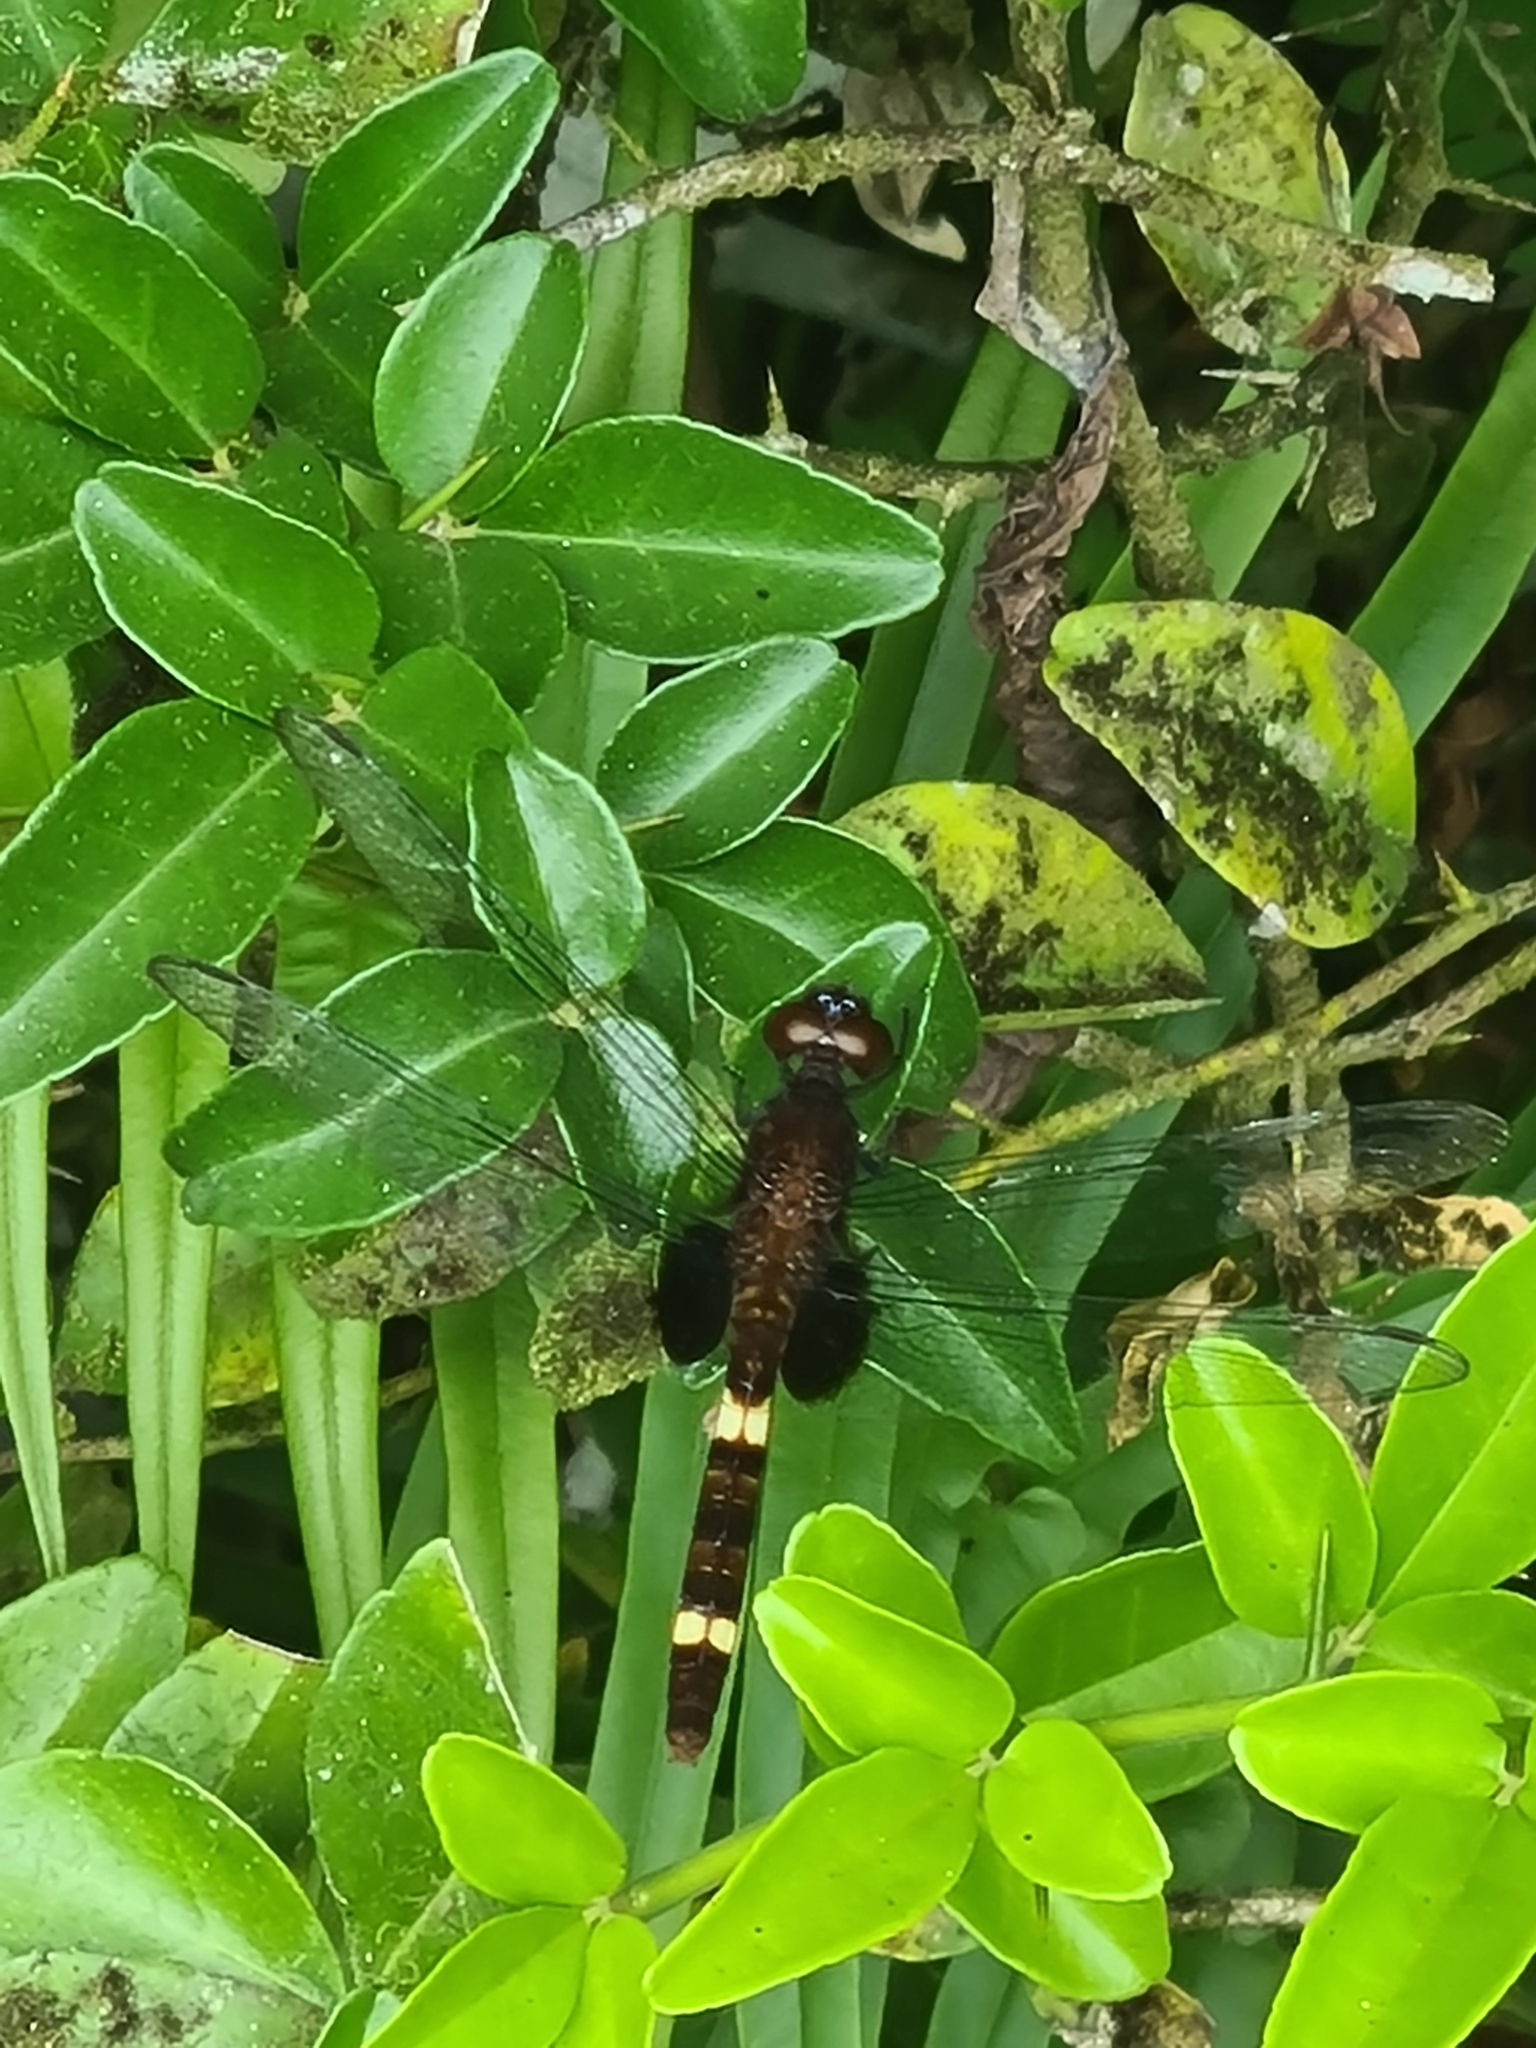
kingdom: Animalia
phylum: Arthropoda
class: Insecta
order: Odonata
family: Libellulidae
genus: Erythemis
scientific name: Erythemis attala
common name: Black pondhawk
